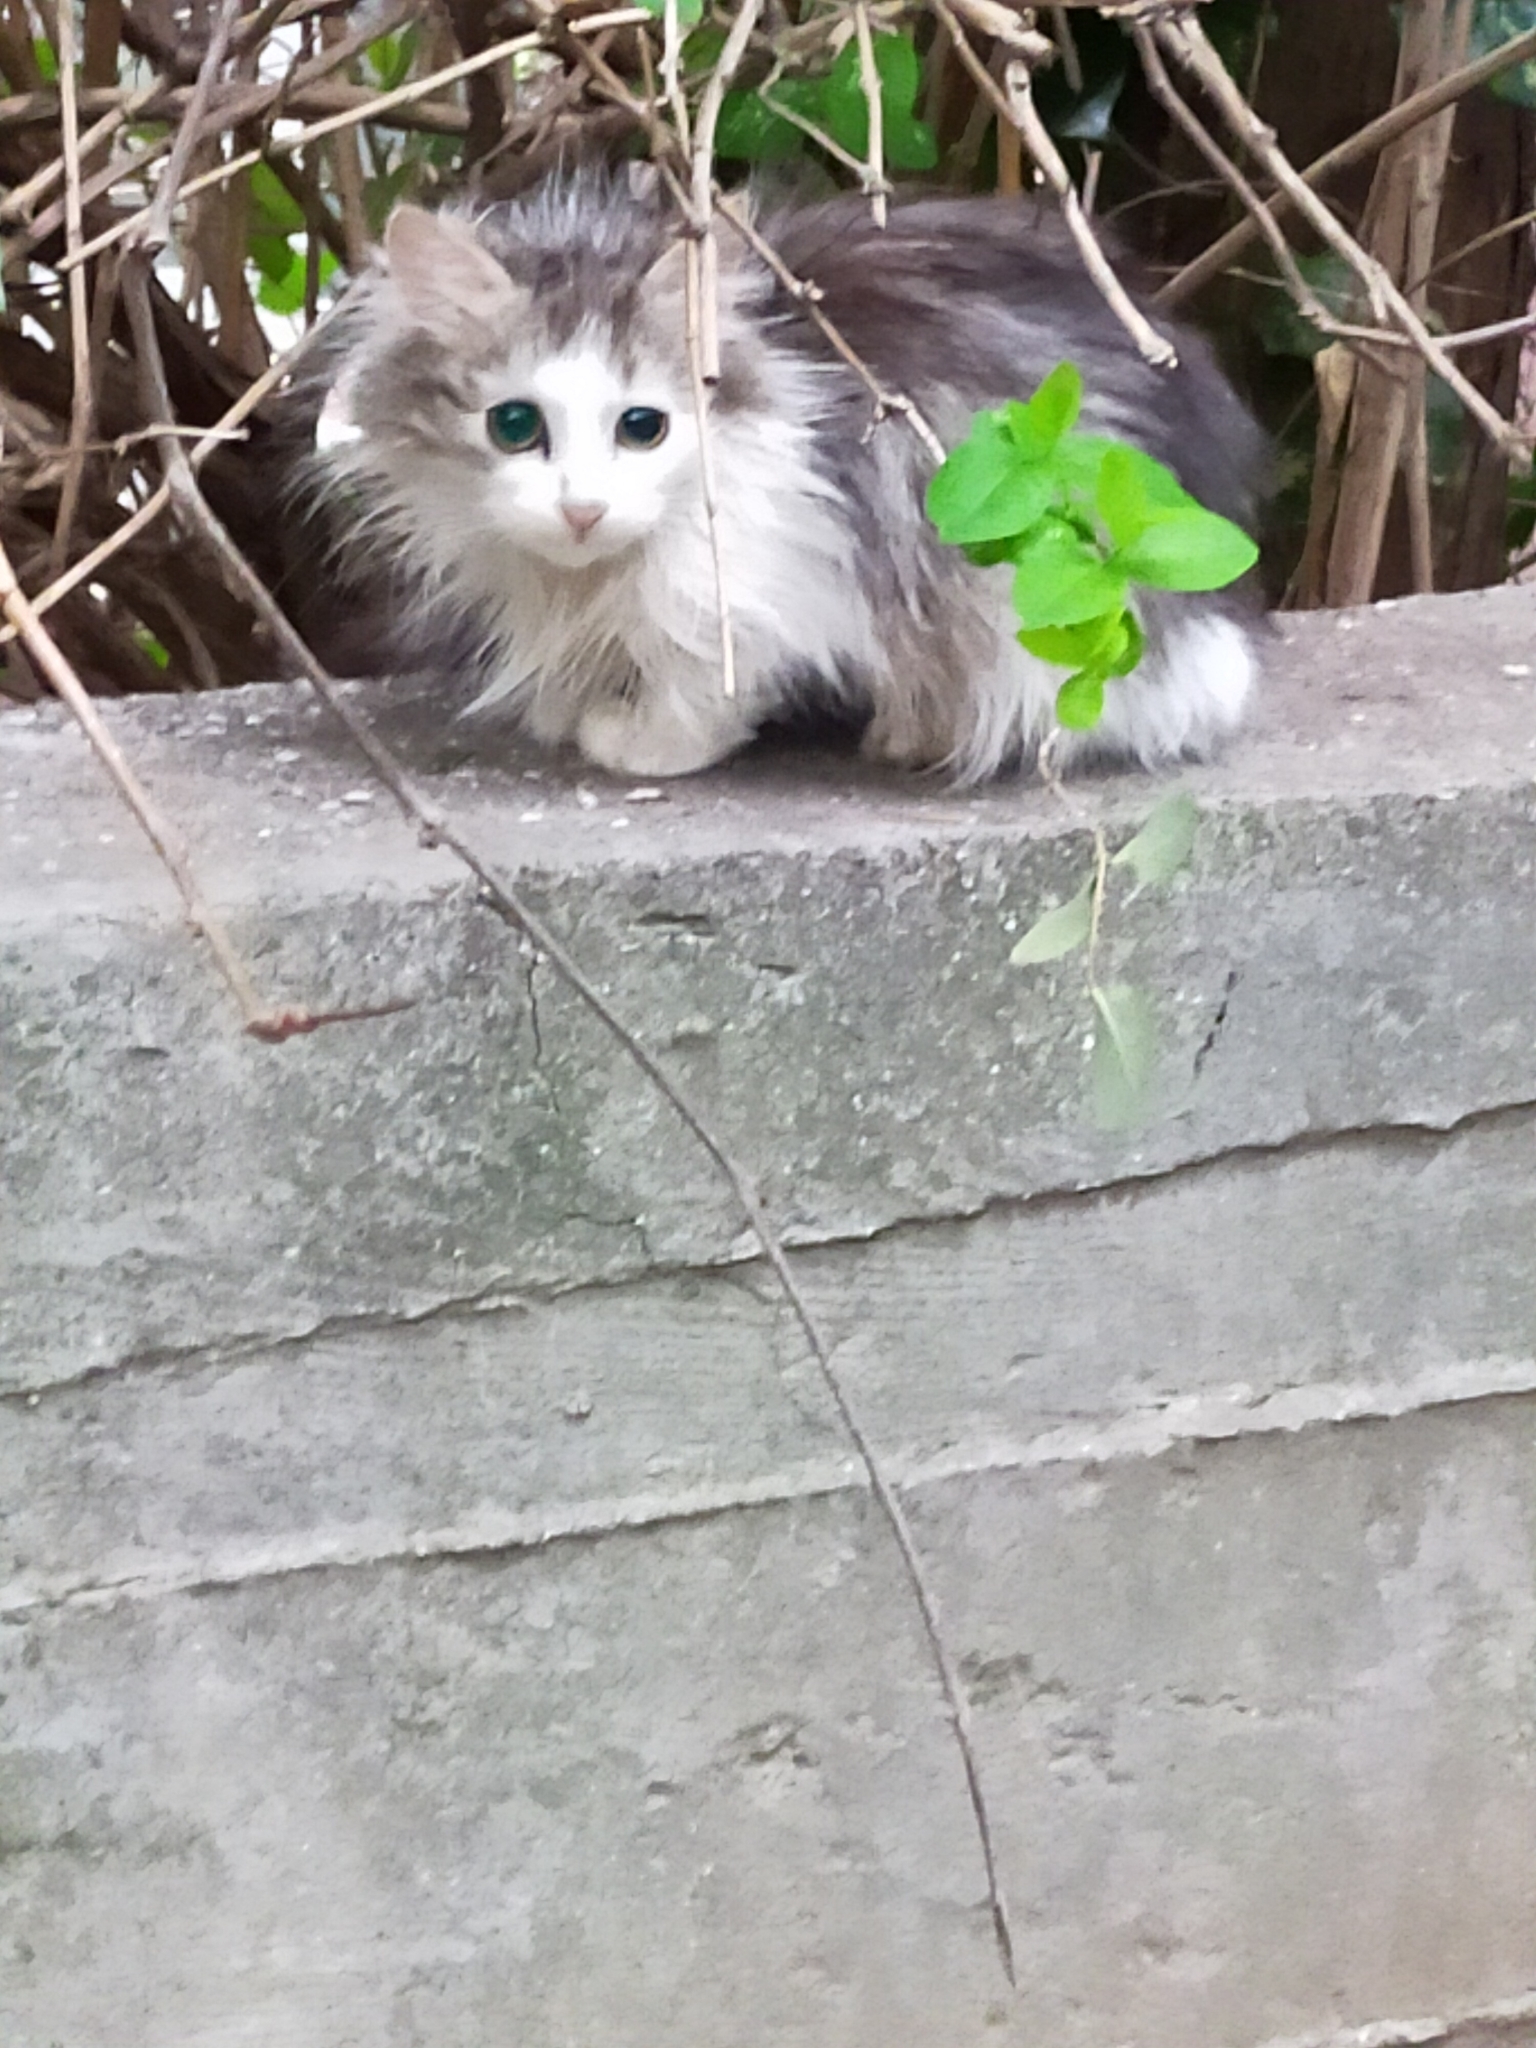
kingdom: Animalia
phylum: Chordata
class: Mammalia
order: Carnivora
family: Felidae
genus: Felis
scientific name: Felis catus
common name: Domestic cat
